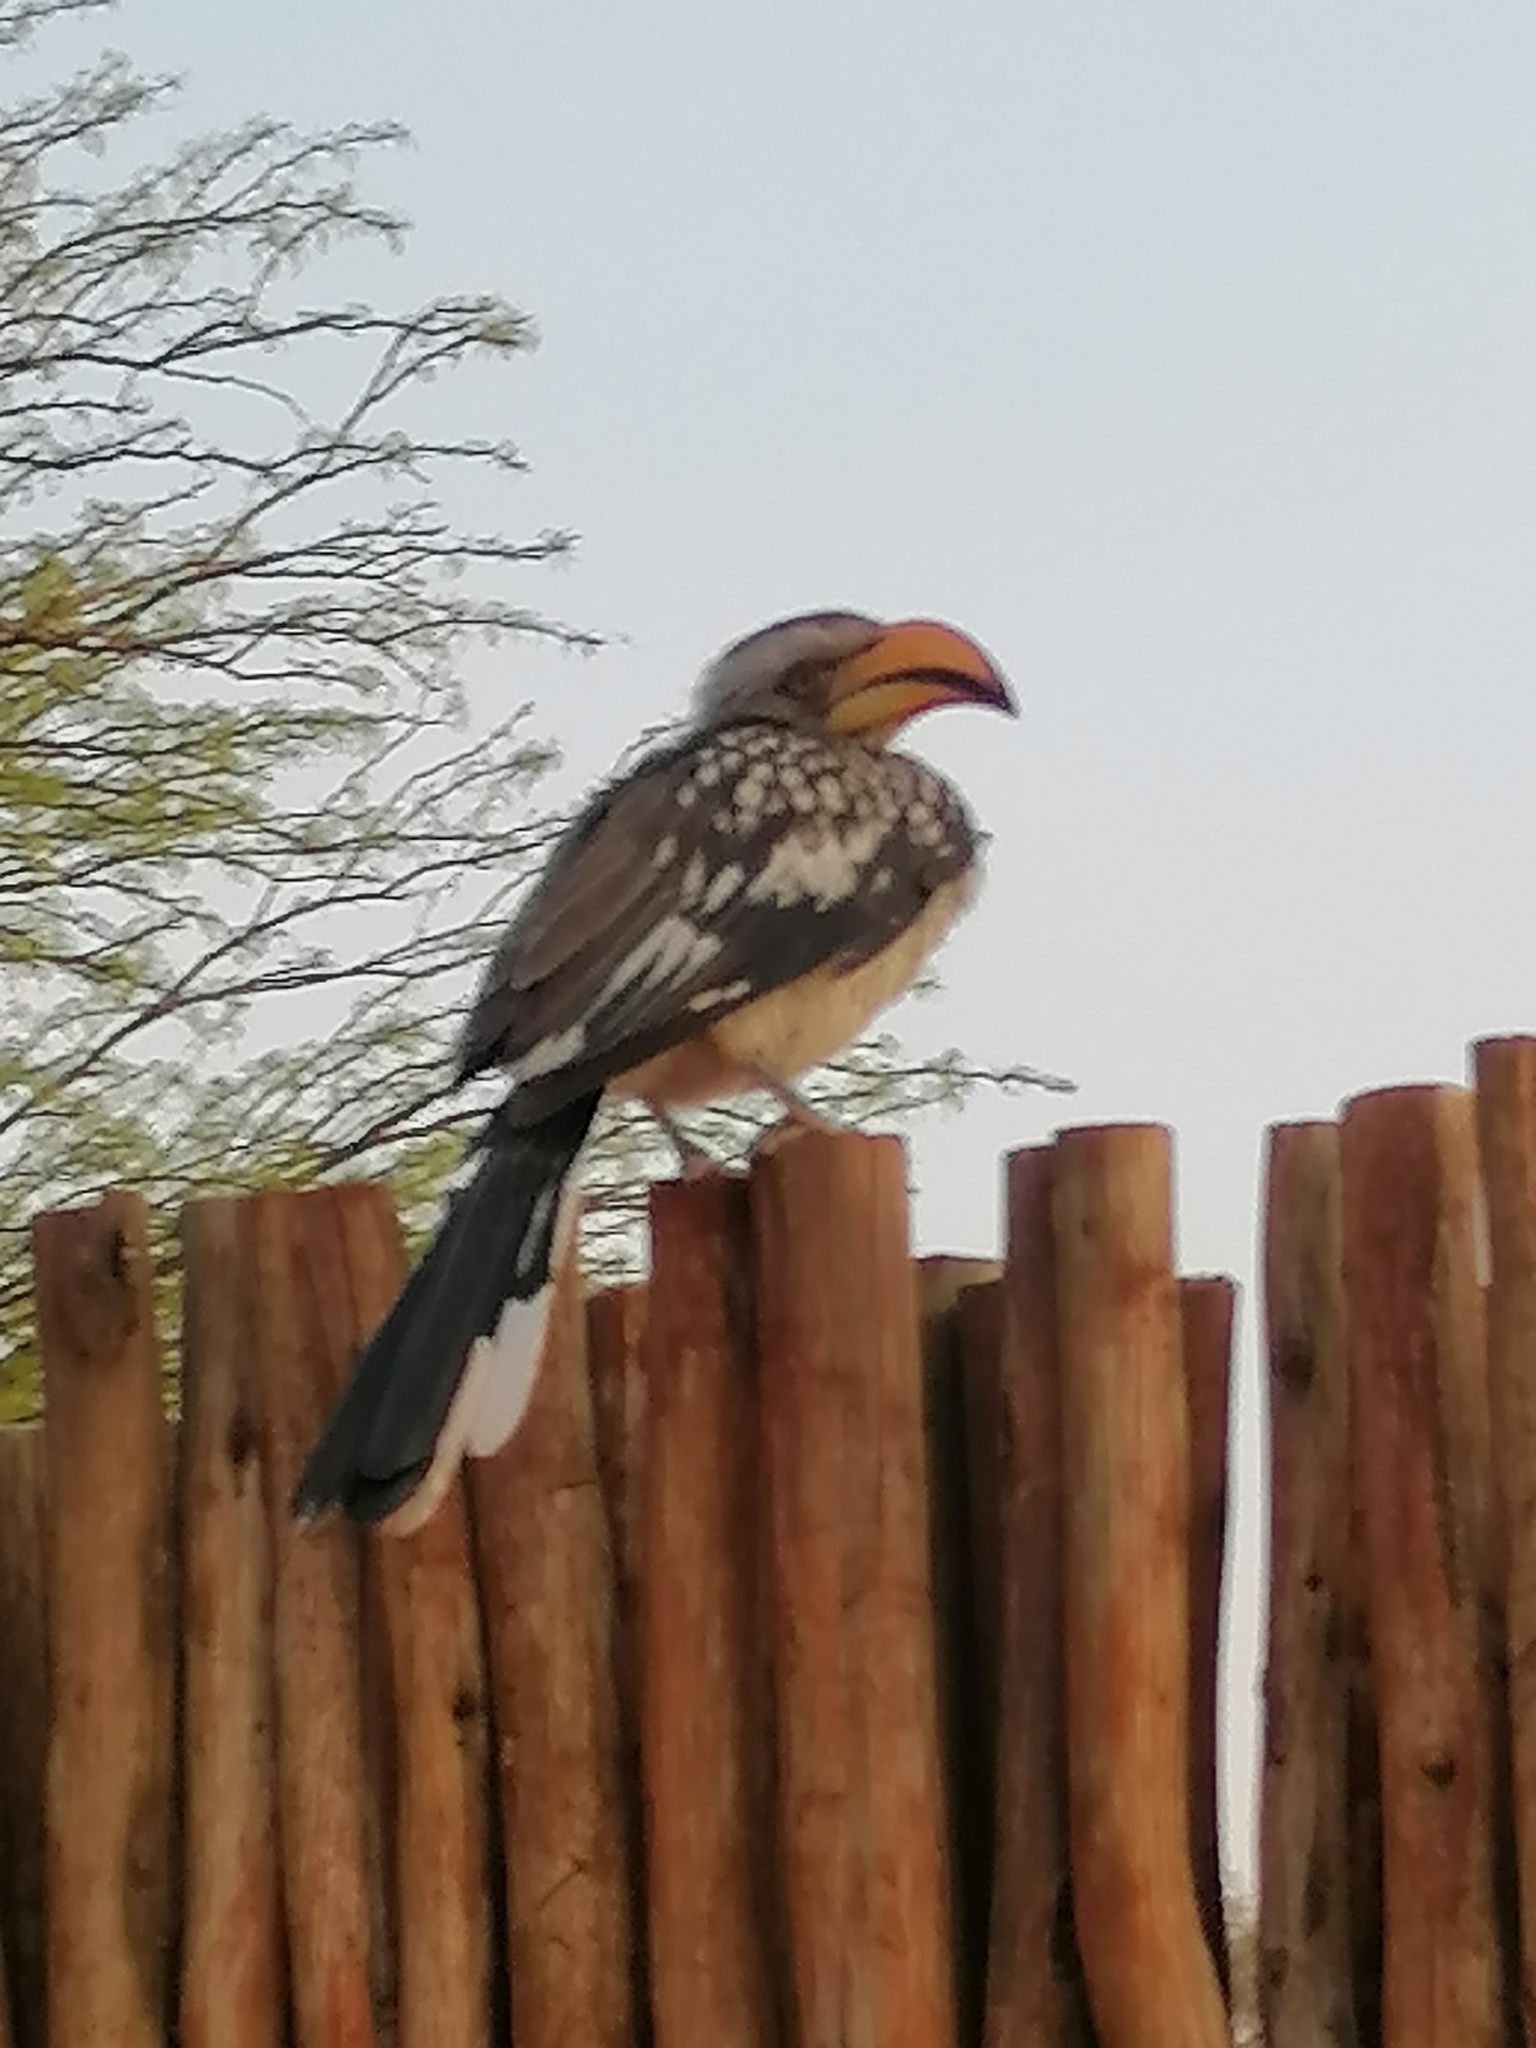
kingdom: Animalia
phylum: Chordata
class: Aves
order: Bucerotiformes
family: Bucerotidae
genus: Tockus
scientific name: Tockus leucomelas
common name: Southern yellow-billed hornbill
